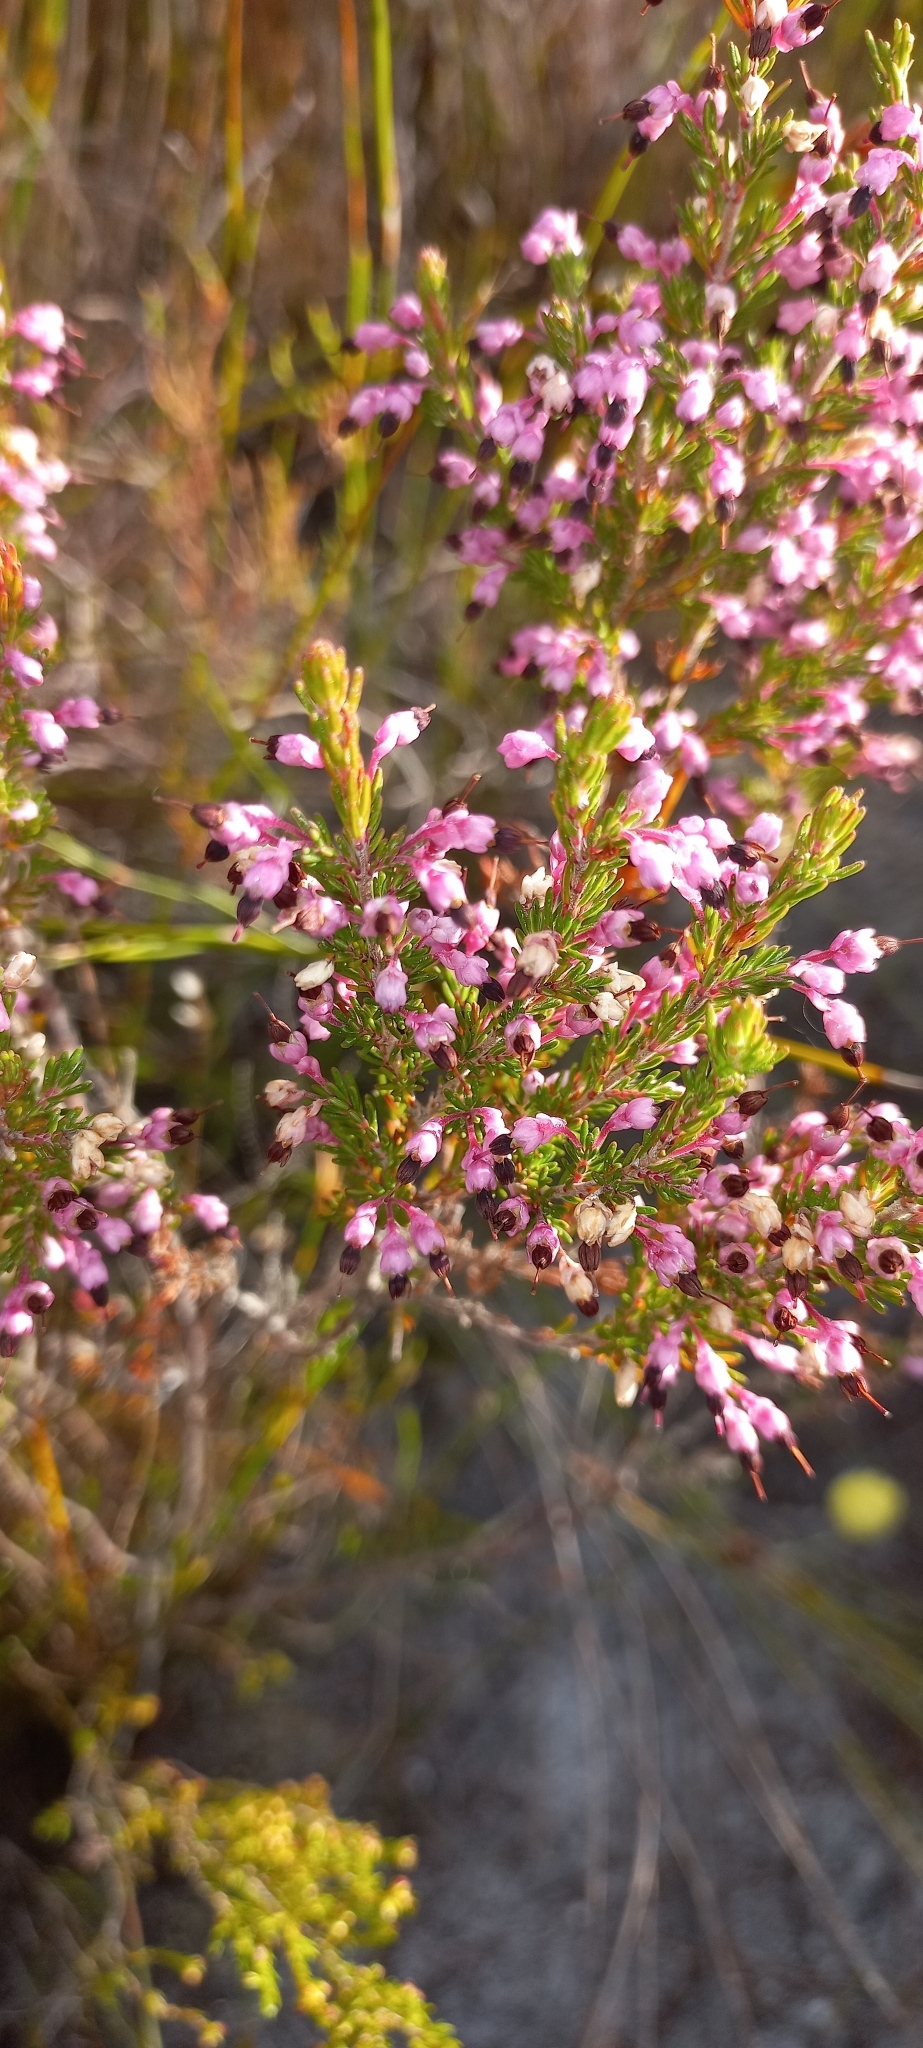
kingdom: Plantae
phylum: Tracheophyta
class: Magnoliopsida
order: Ericales
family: Ericaceae
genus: Erica
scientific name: Erica placentiflora
